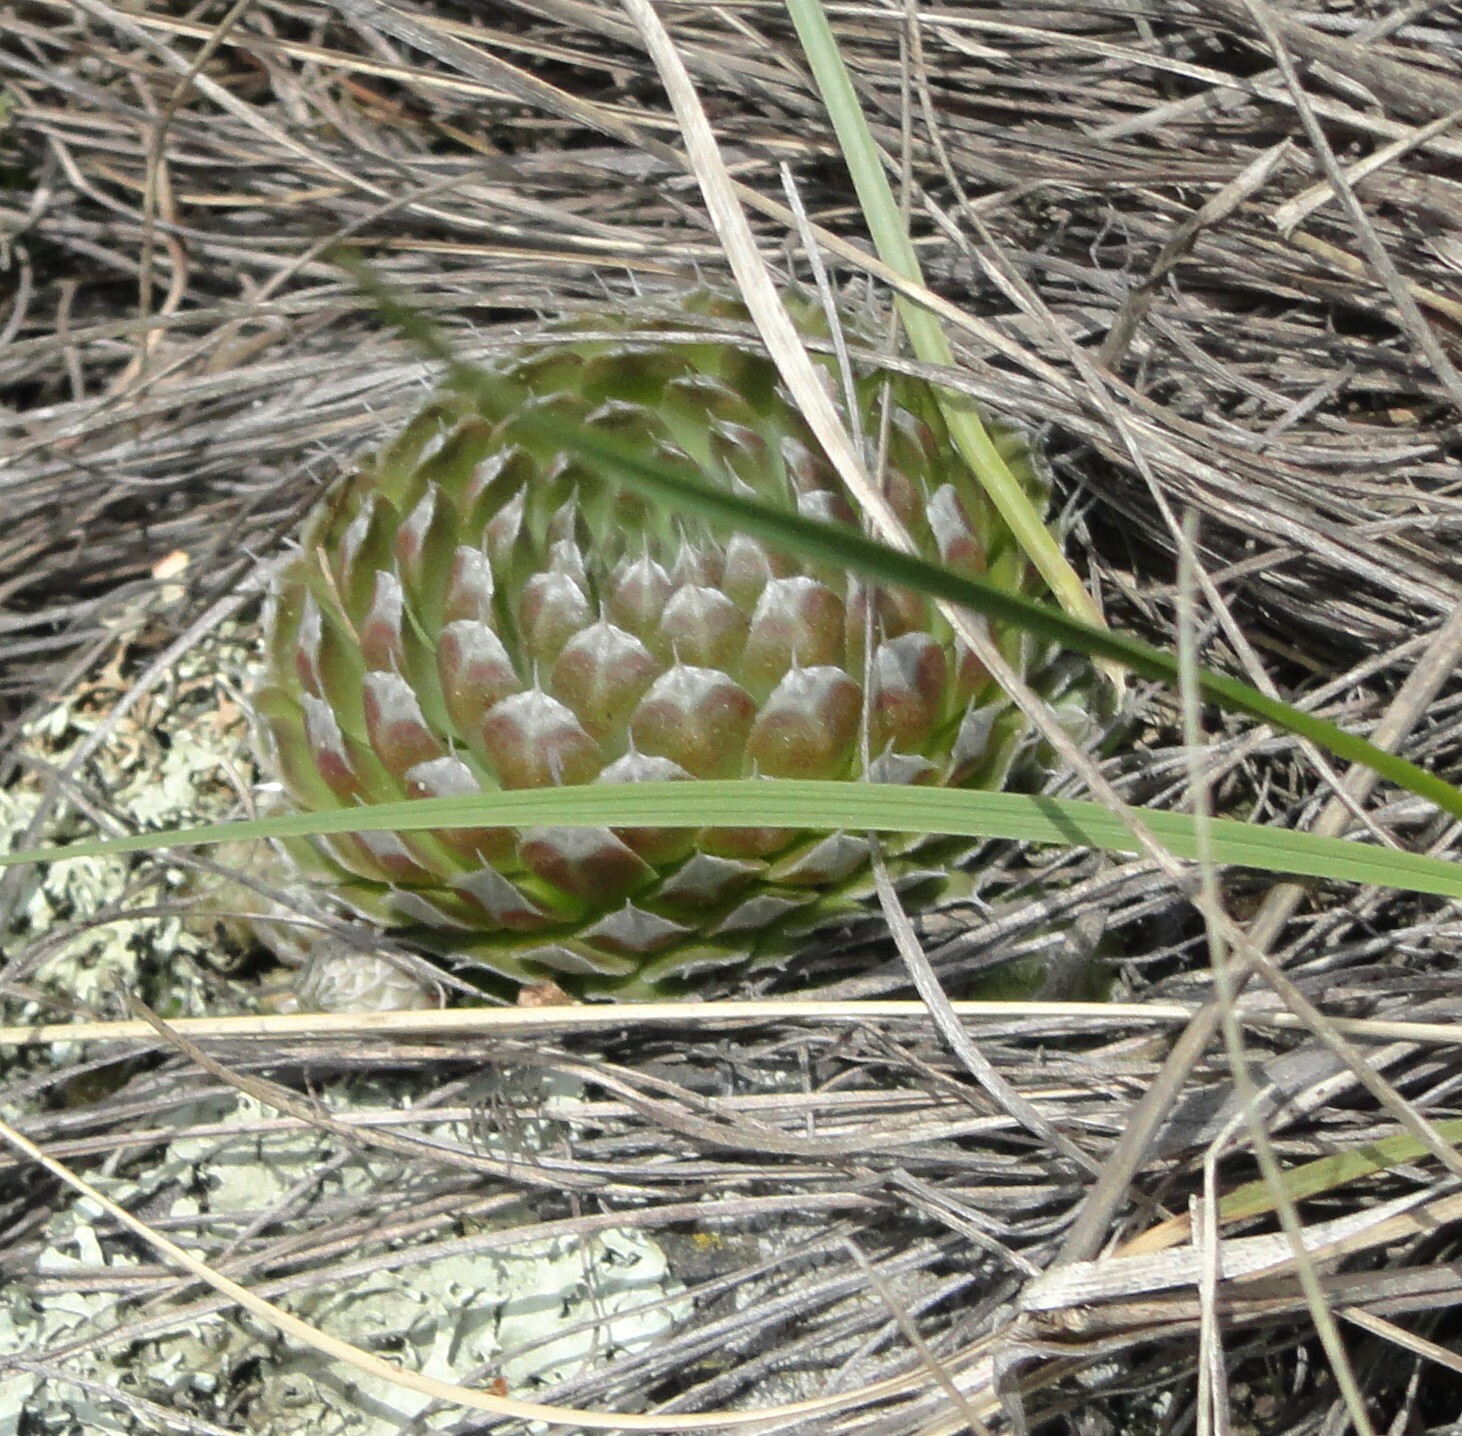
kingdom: Plantae
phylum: Tracheophyta
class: Magnoliopsida
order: Saxifragales
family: Crassulaceae
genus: Orostachys
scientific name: Orostachys spinosa
